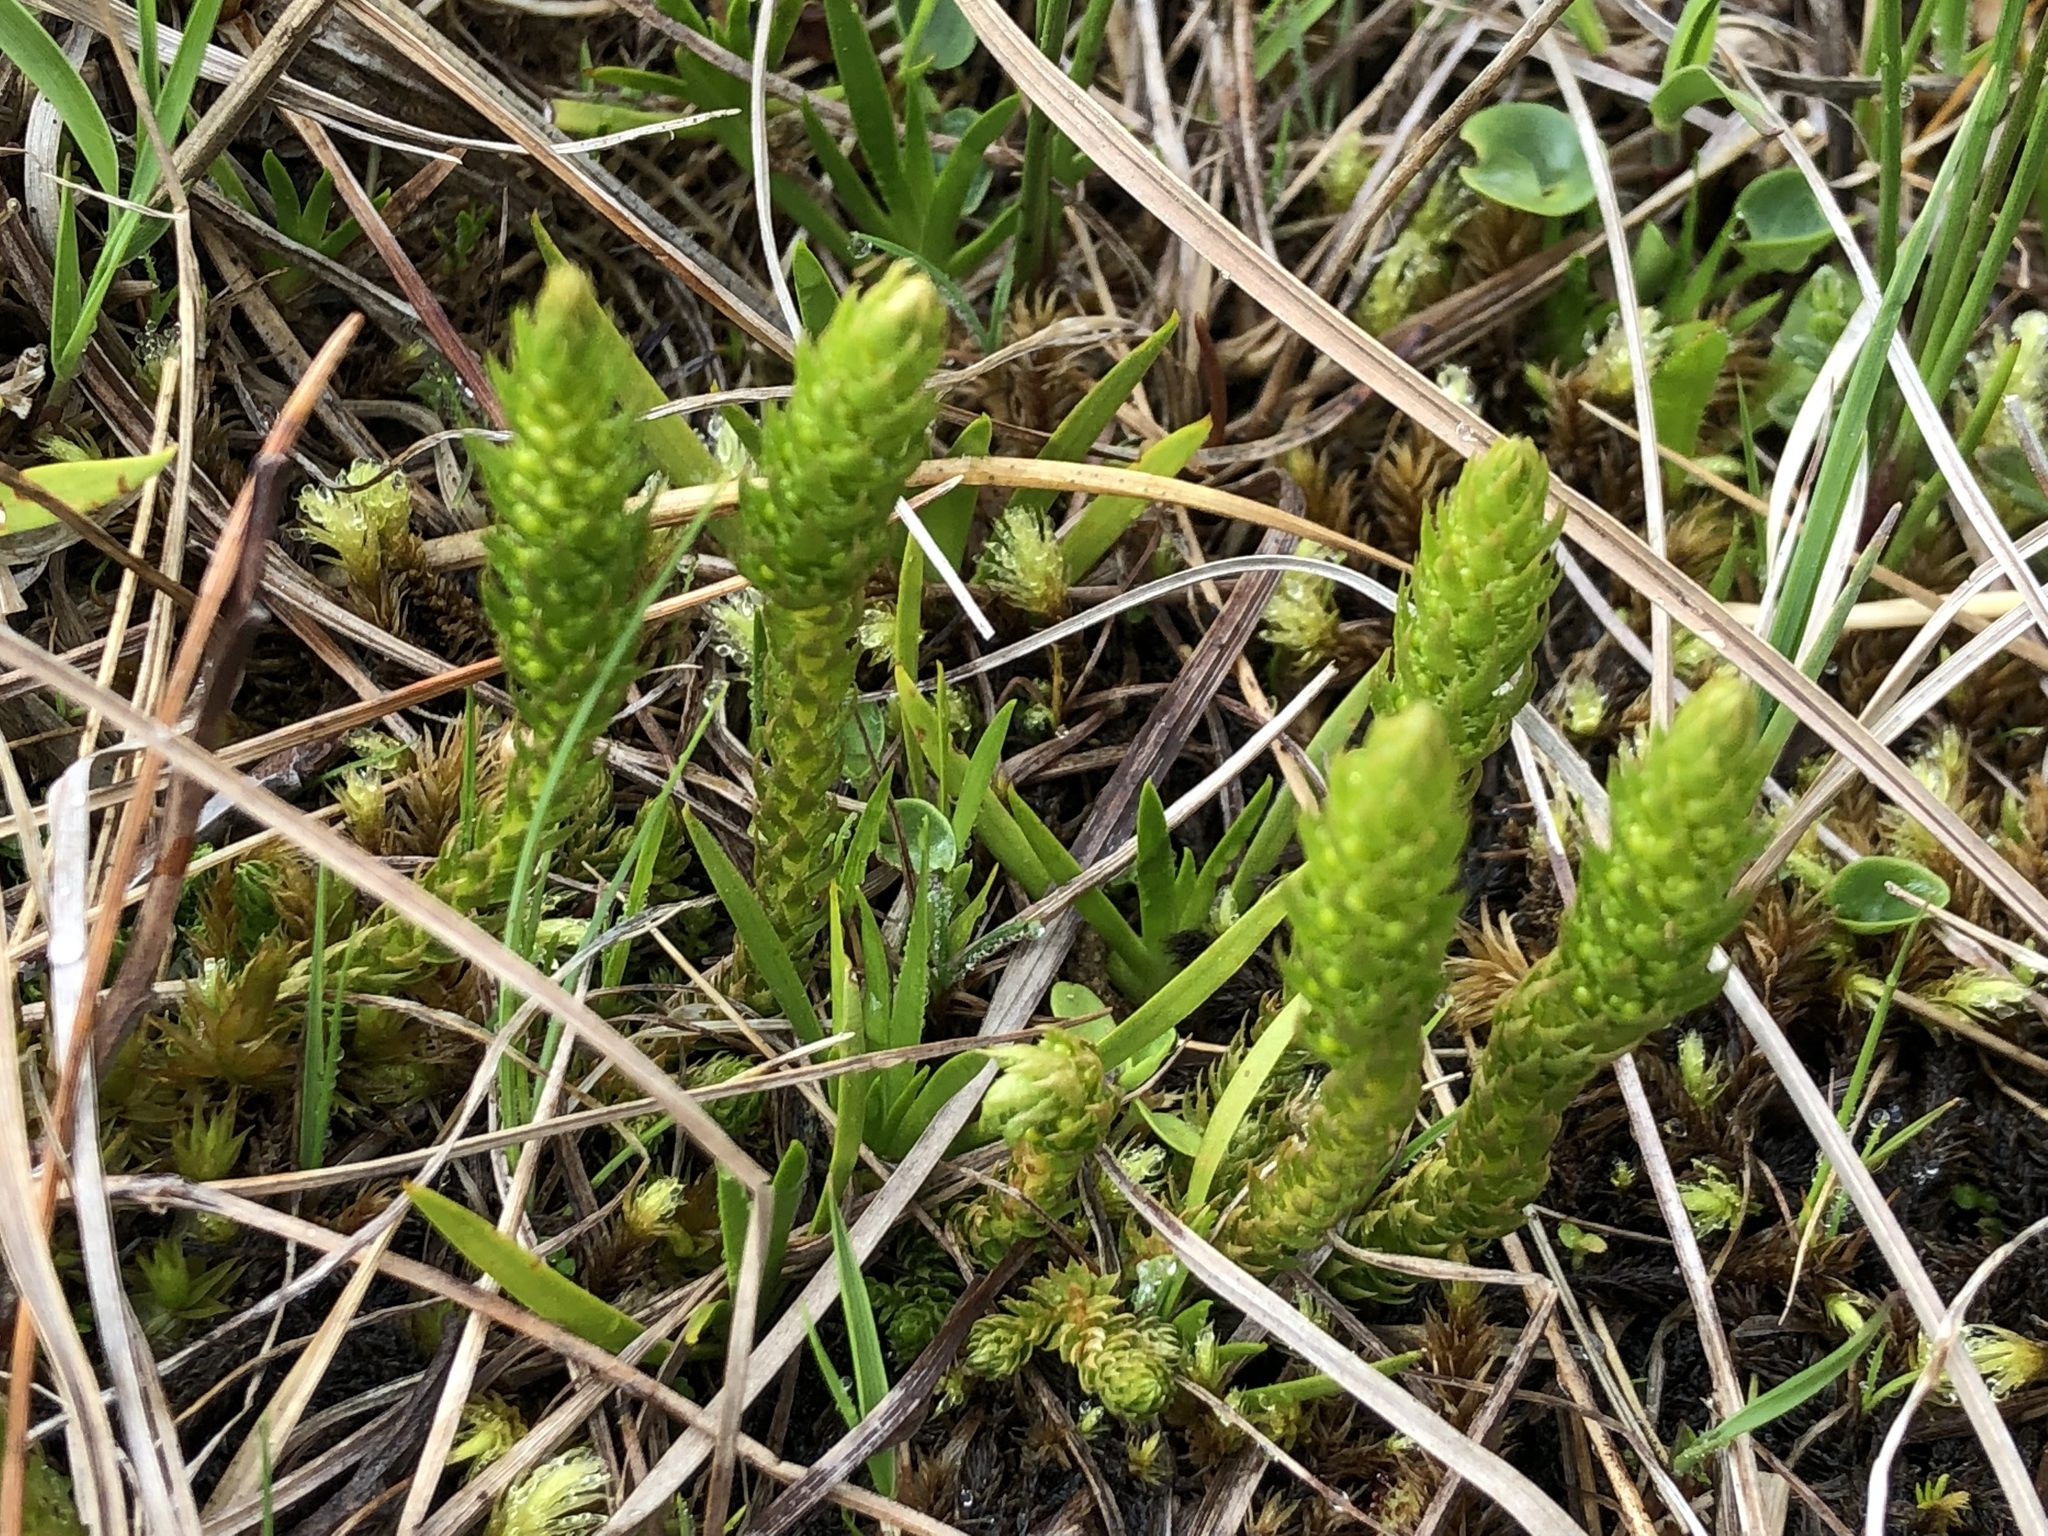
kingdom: Plantae
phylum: Tracheophyta
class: Lycopodiopsida
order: Selaginellales
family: Selaginellaceae
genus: Selaginella
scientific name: Selaginella selaginoides
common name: Prickly mountain-moss
